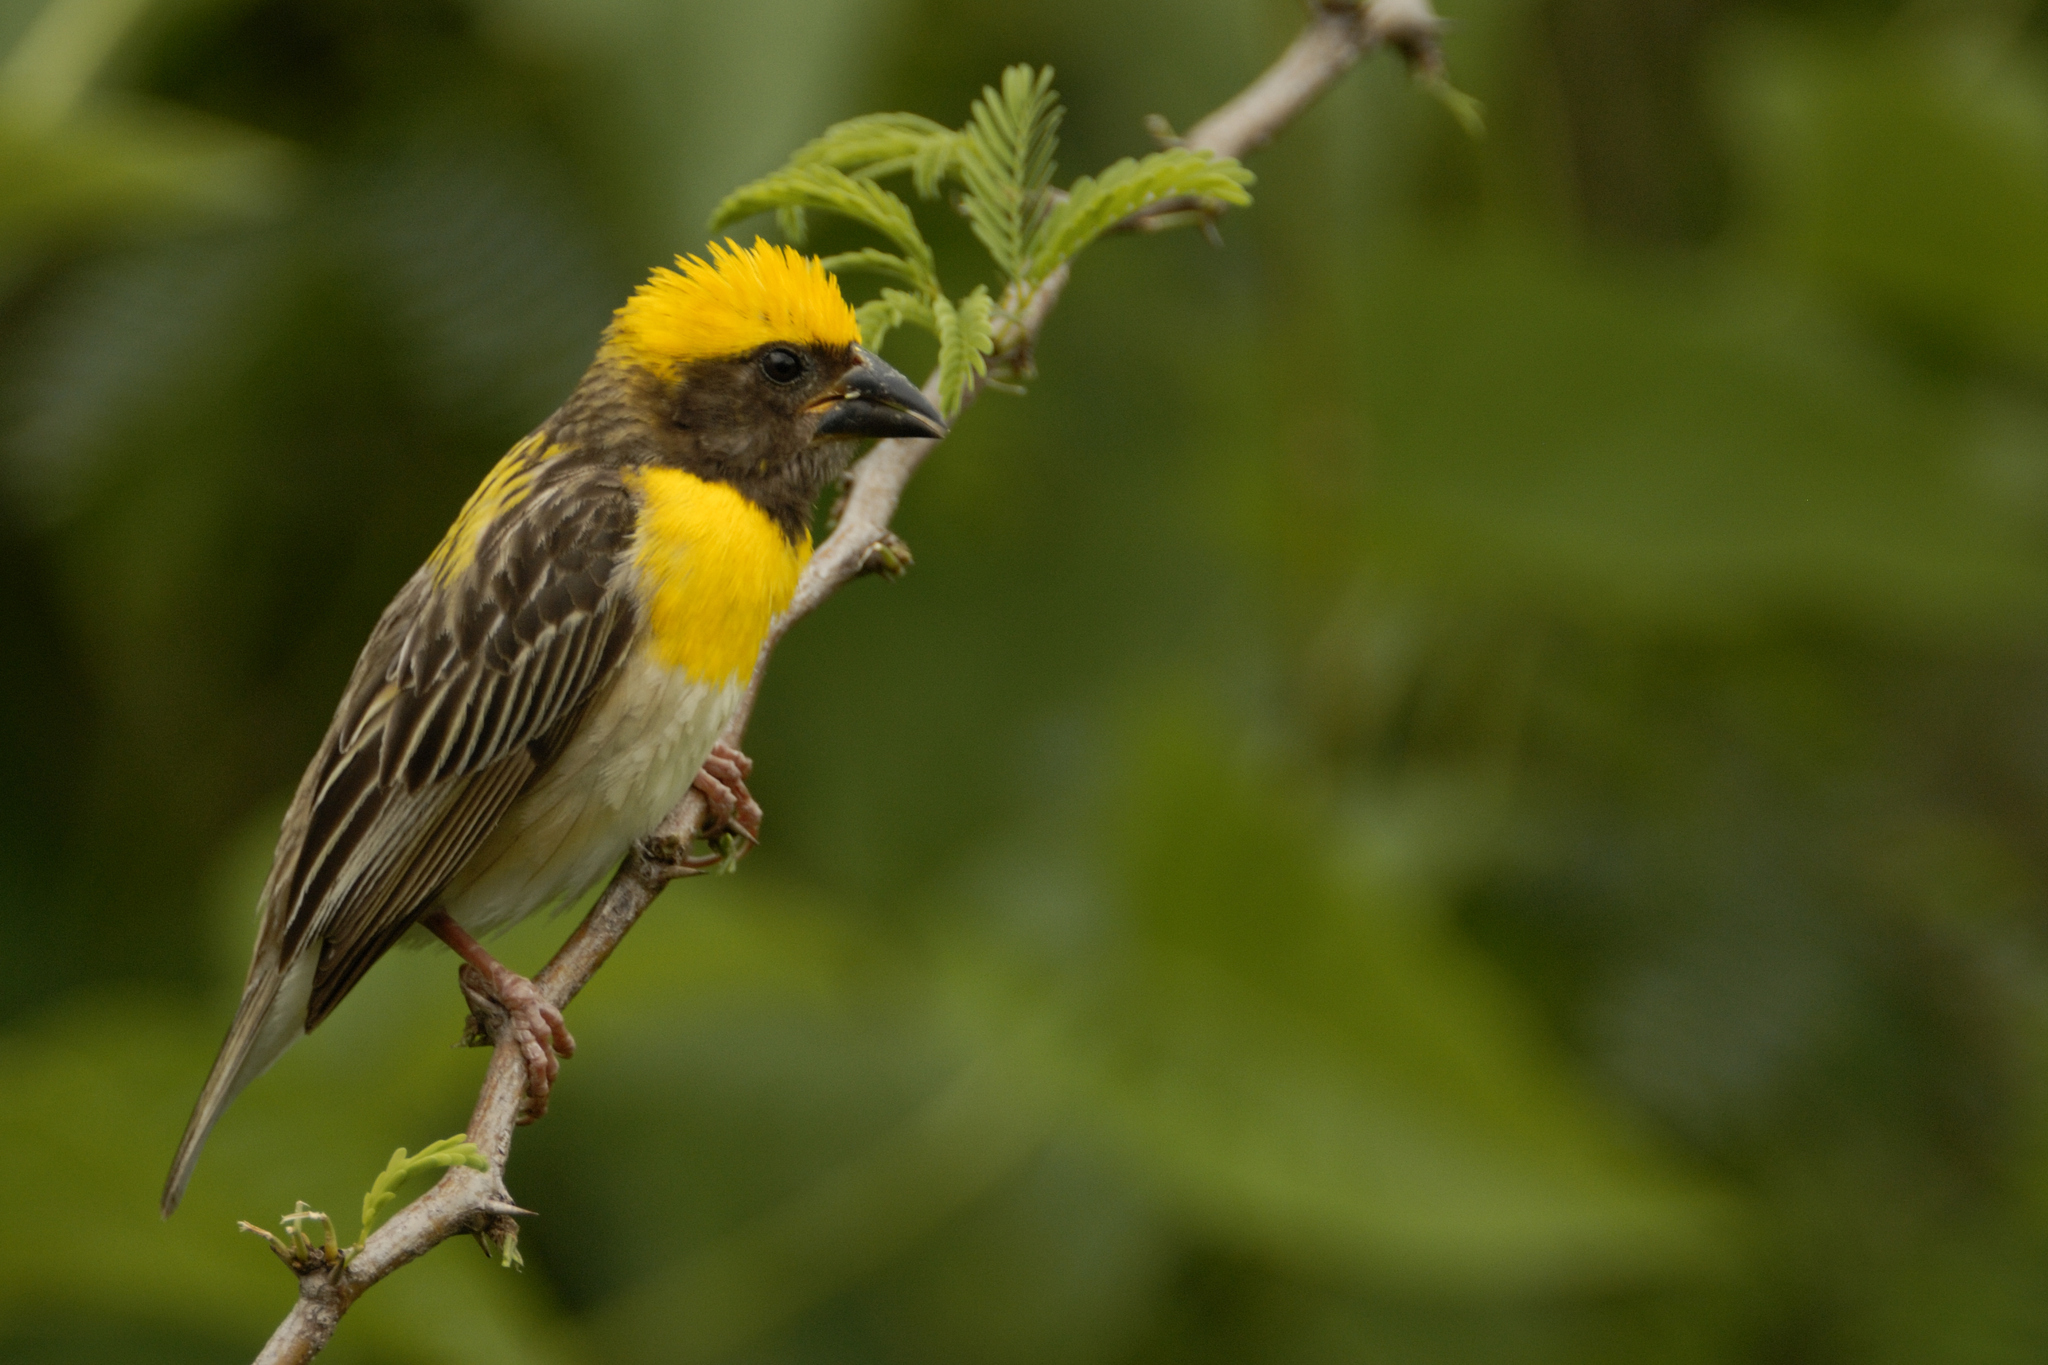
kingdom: Animalia
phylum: Chordata
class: Aves
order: Passeriformes
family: Ploceidae
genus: Ploceus
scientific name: Ploceus philippinus
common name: Baya weaver
